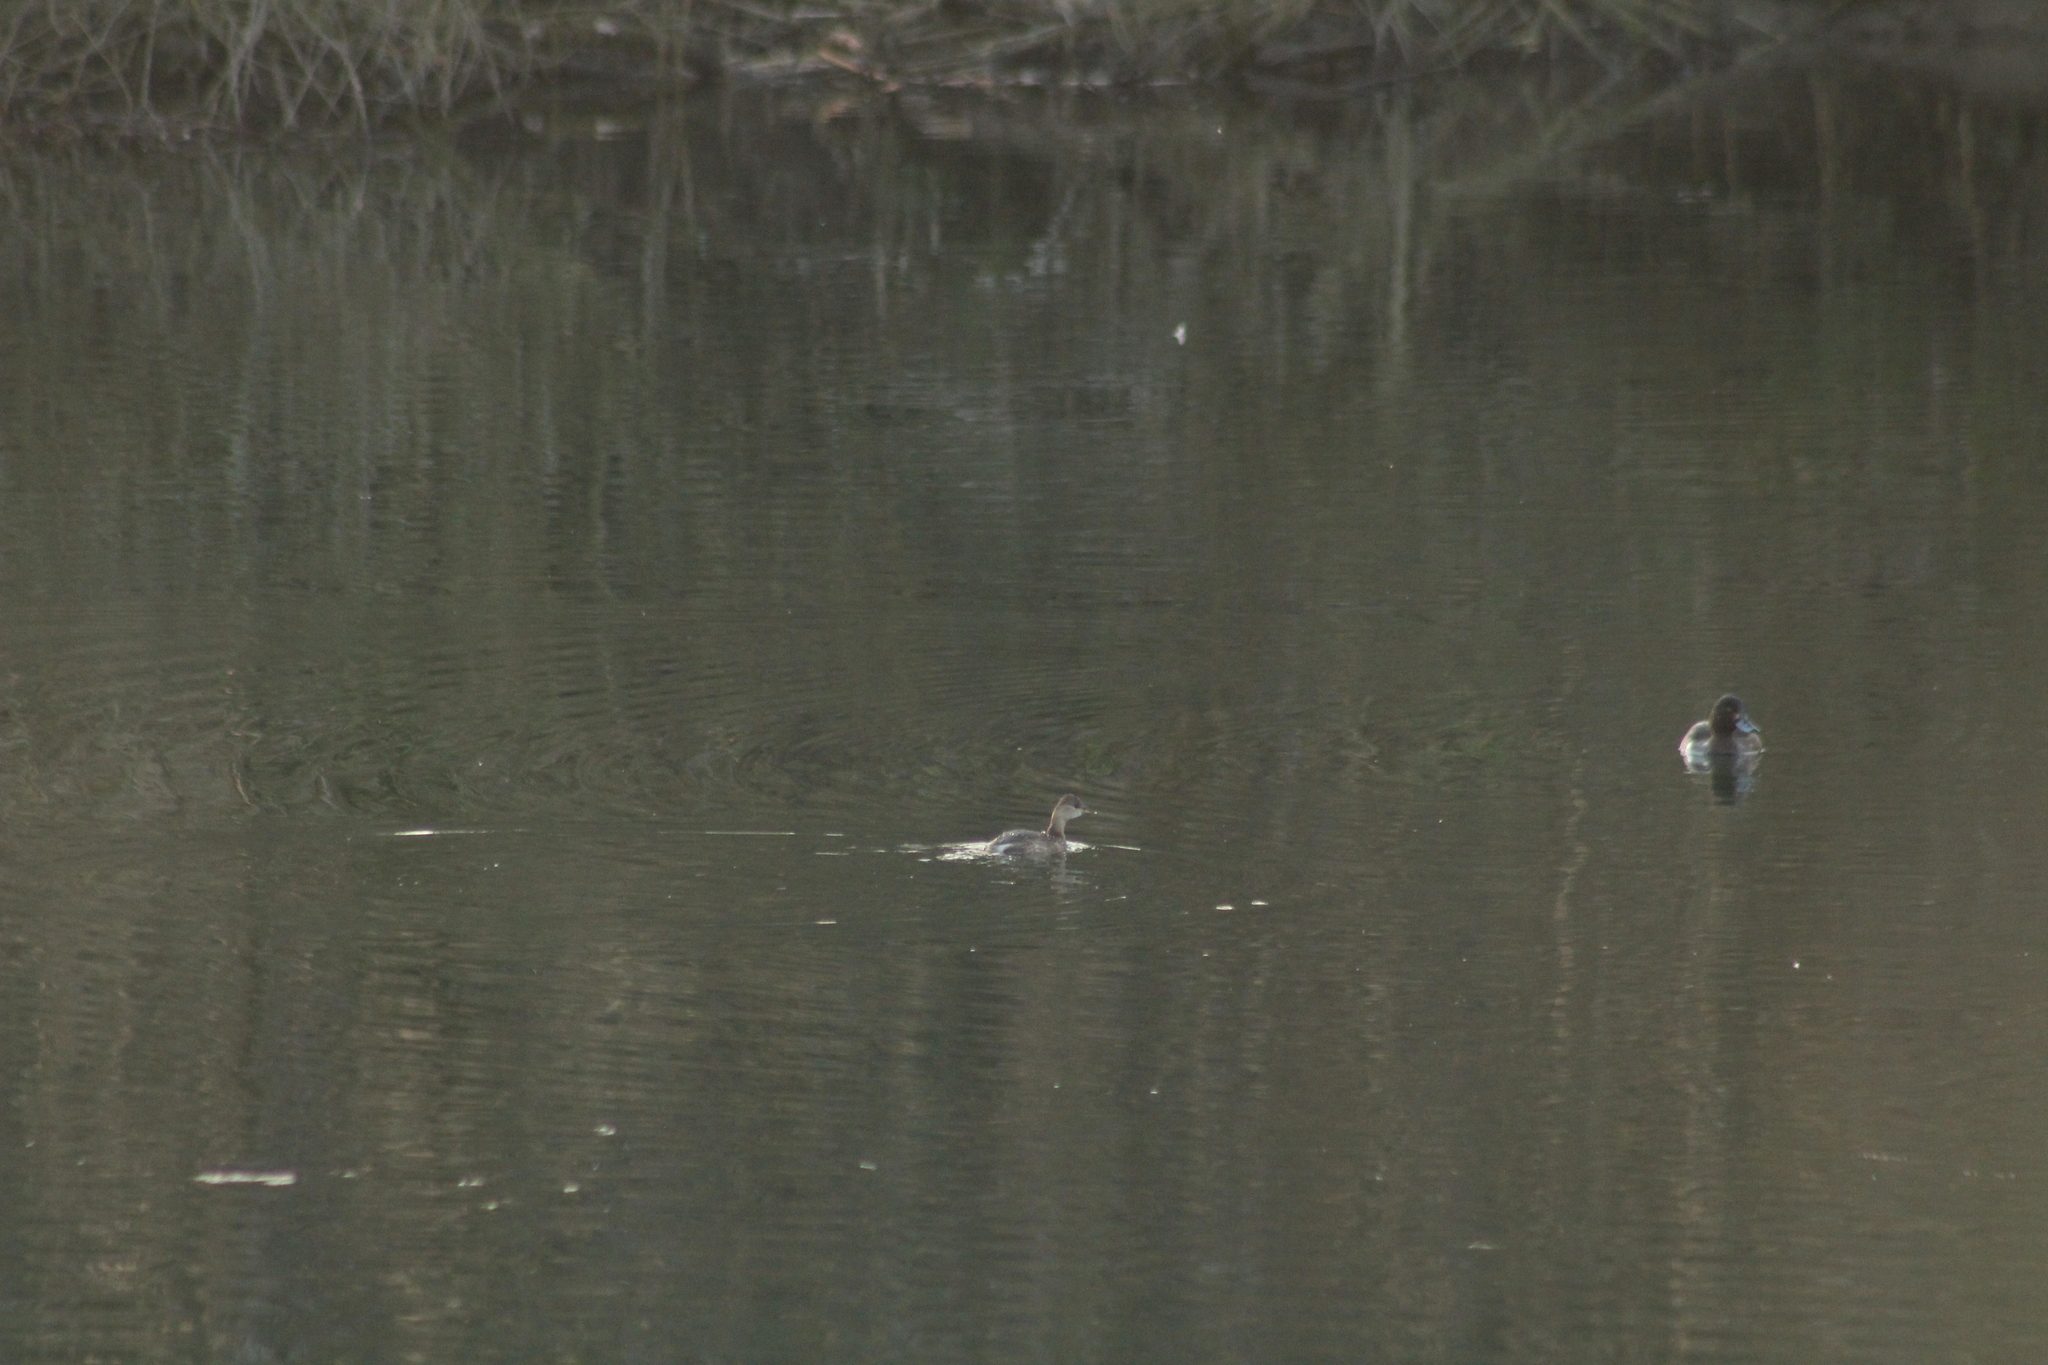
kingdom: Animalia
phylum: Chordata
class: Aves
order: Podicipediformes
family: Podicipedidae
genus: Tachybaptus
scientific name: Tachybaptus ruficollis
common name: Little grebe
